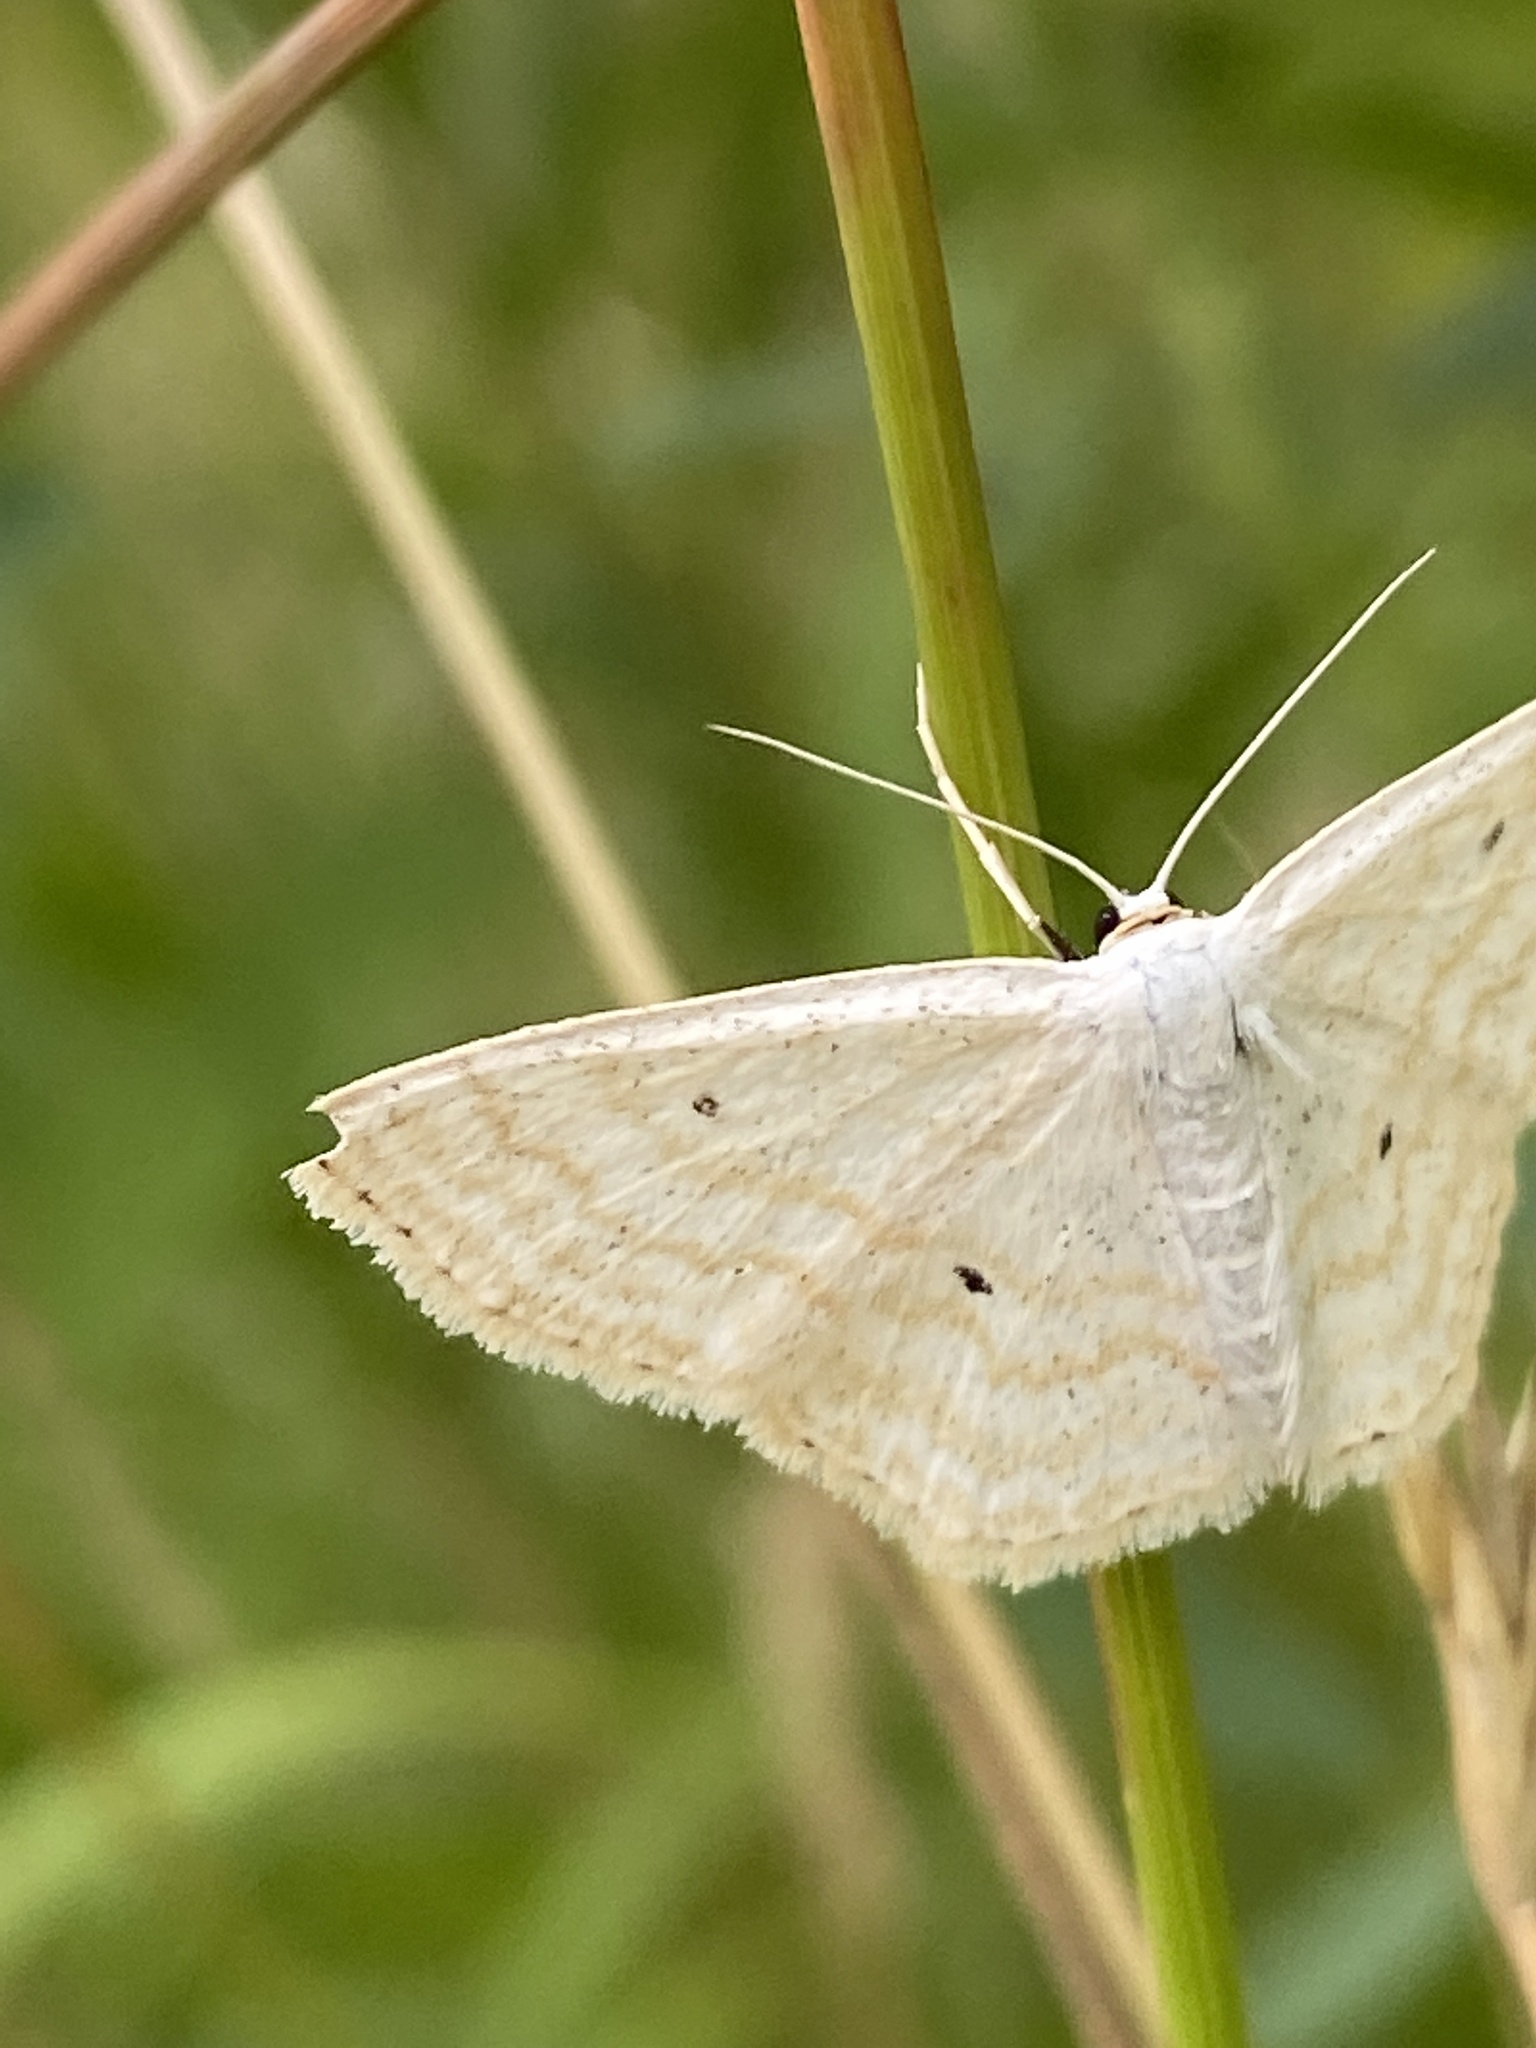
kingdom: Animalia
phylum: Arthropoda
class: Insecta
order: Lepidoptera
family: Geometridae
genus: Scopula
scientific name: Scopula immutata
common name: Lesser cream wave
